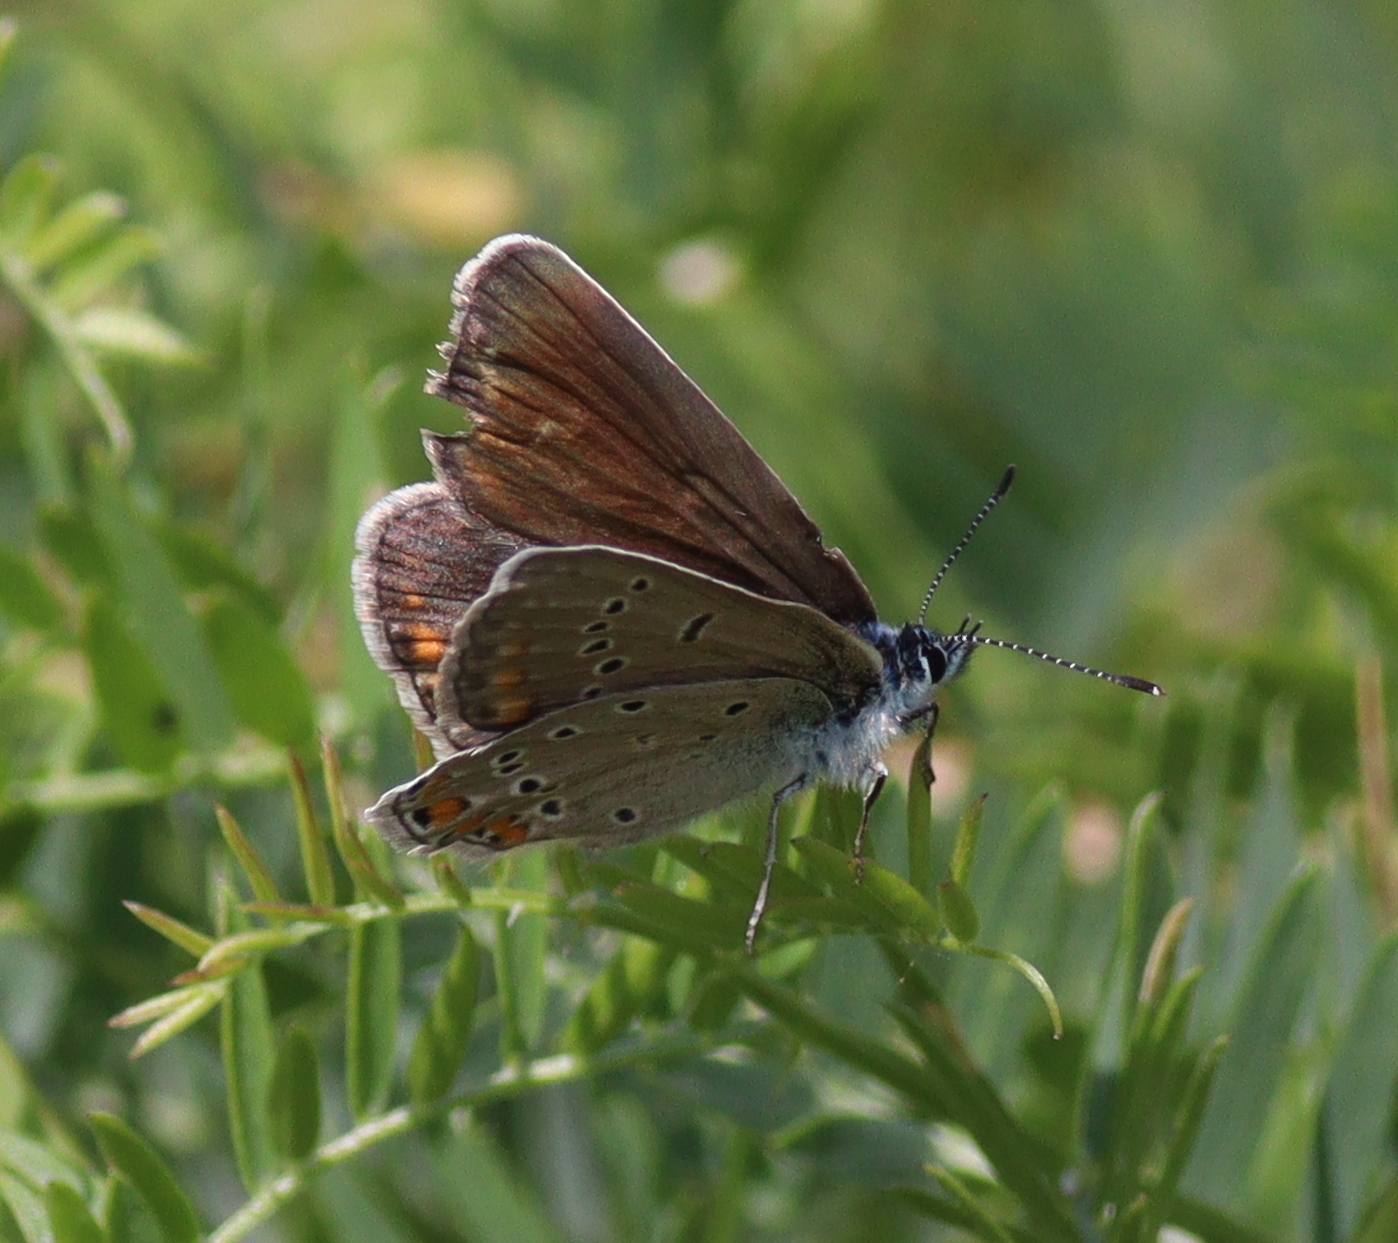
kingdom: Animalia
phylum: Arthropoda
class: Insecta
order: Lepidoptera
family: Lycaenidae
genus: Plebejus
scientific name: Plebejus amanda
